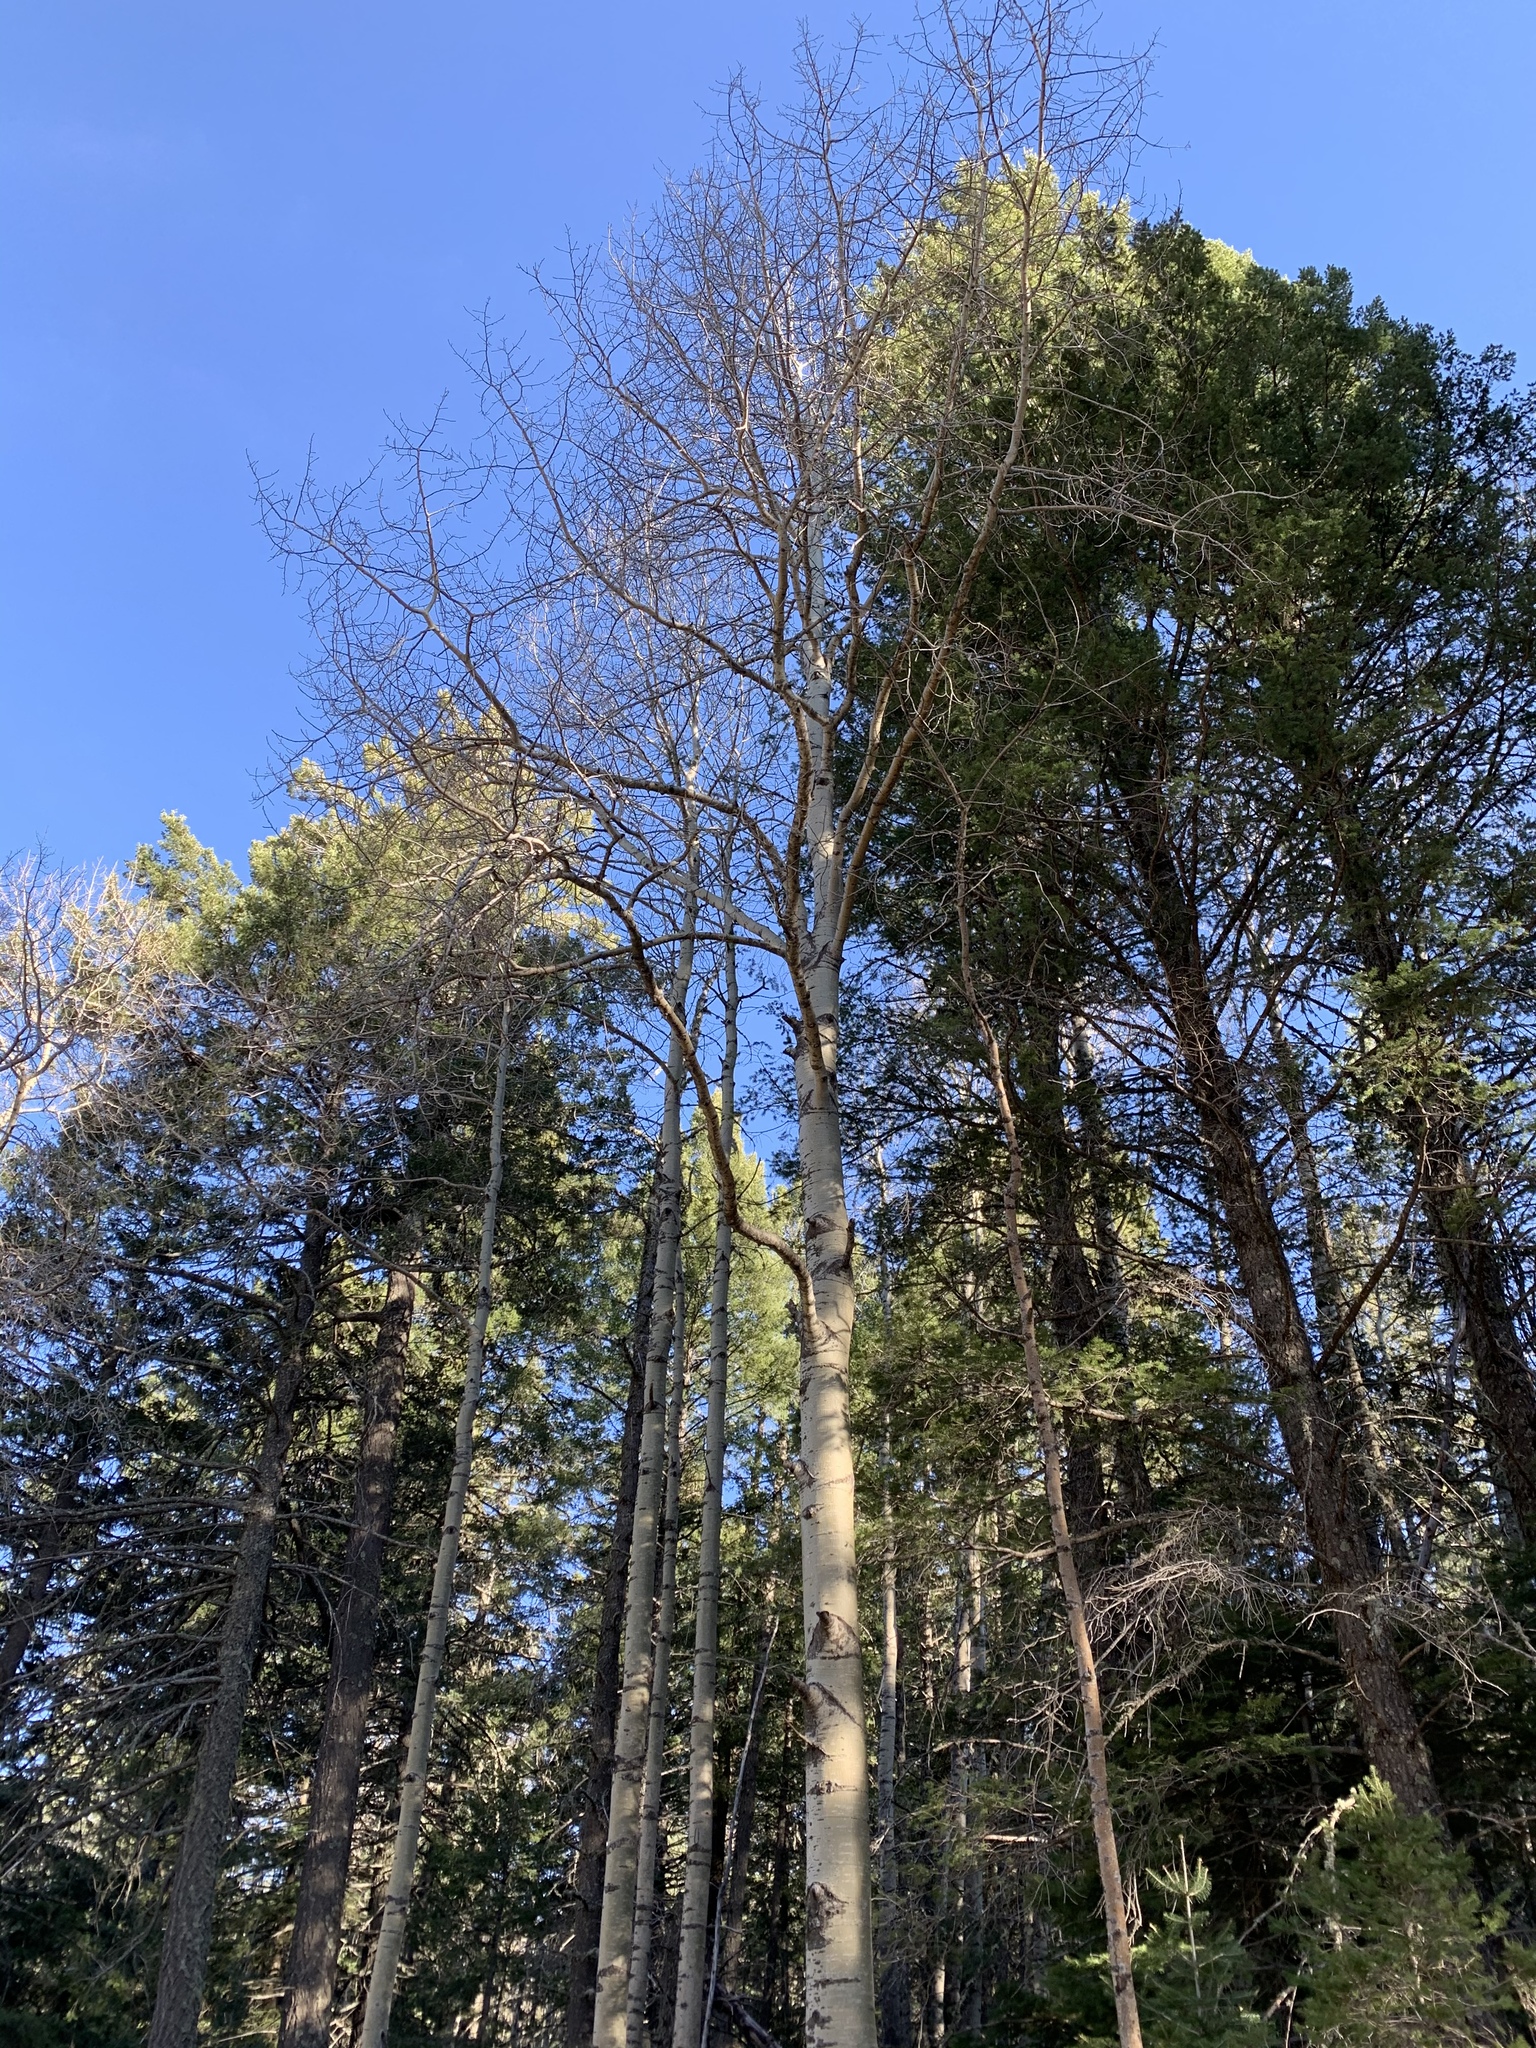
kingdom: Plantae
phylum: Tracheophyta
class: Magnoliopsida
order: Malpighiales
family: Salicaceae
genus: Populus
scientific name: Populus tremuloides
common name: Quaking aspen
